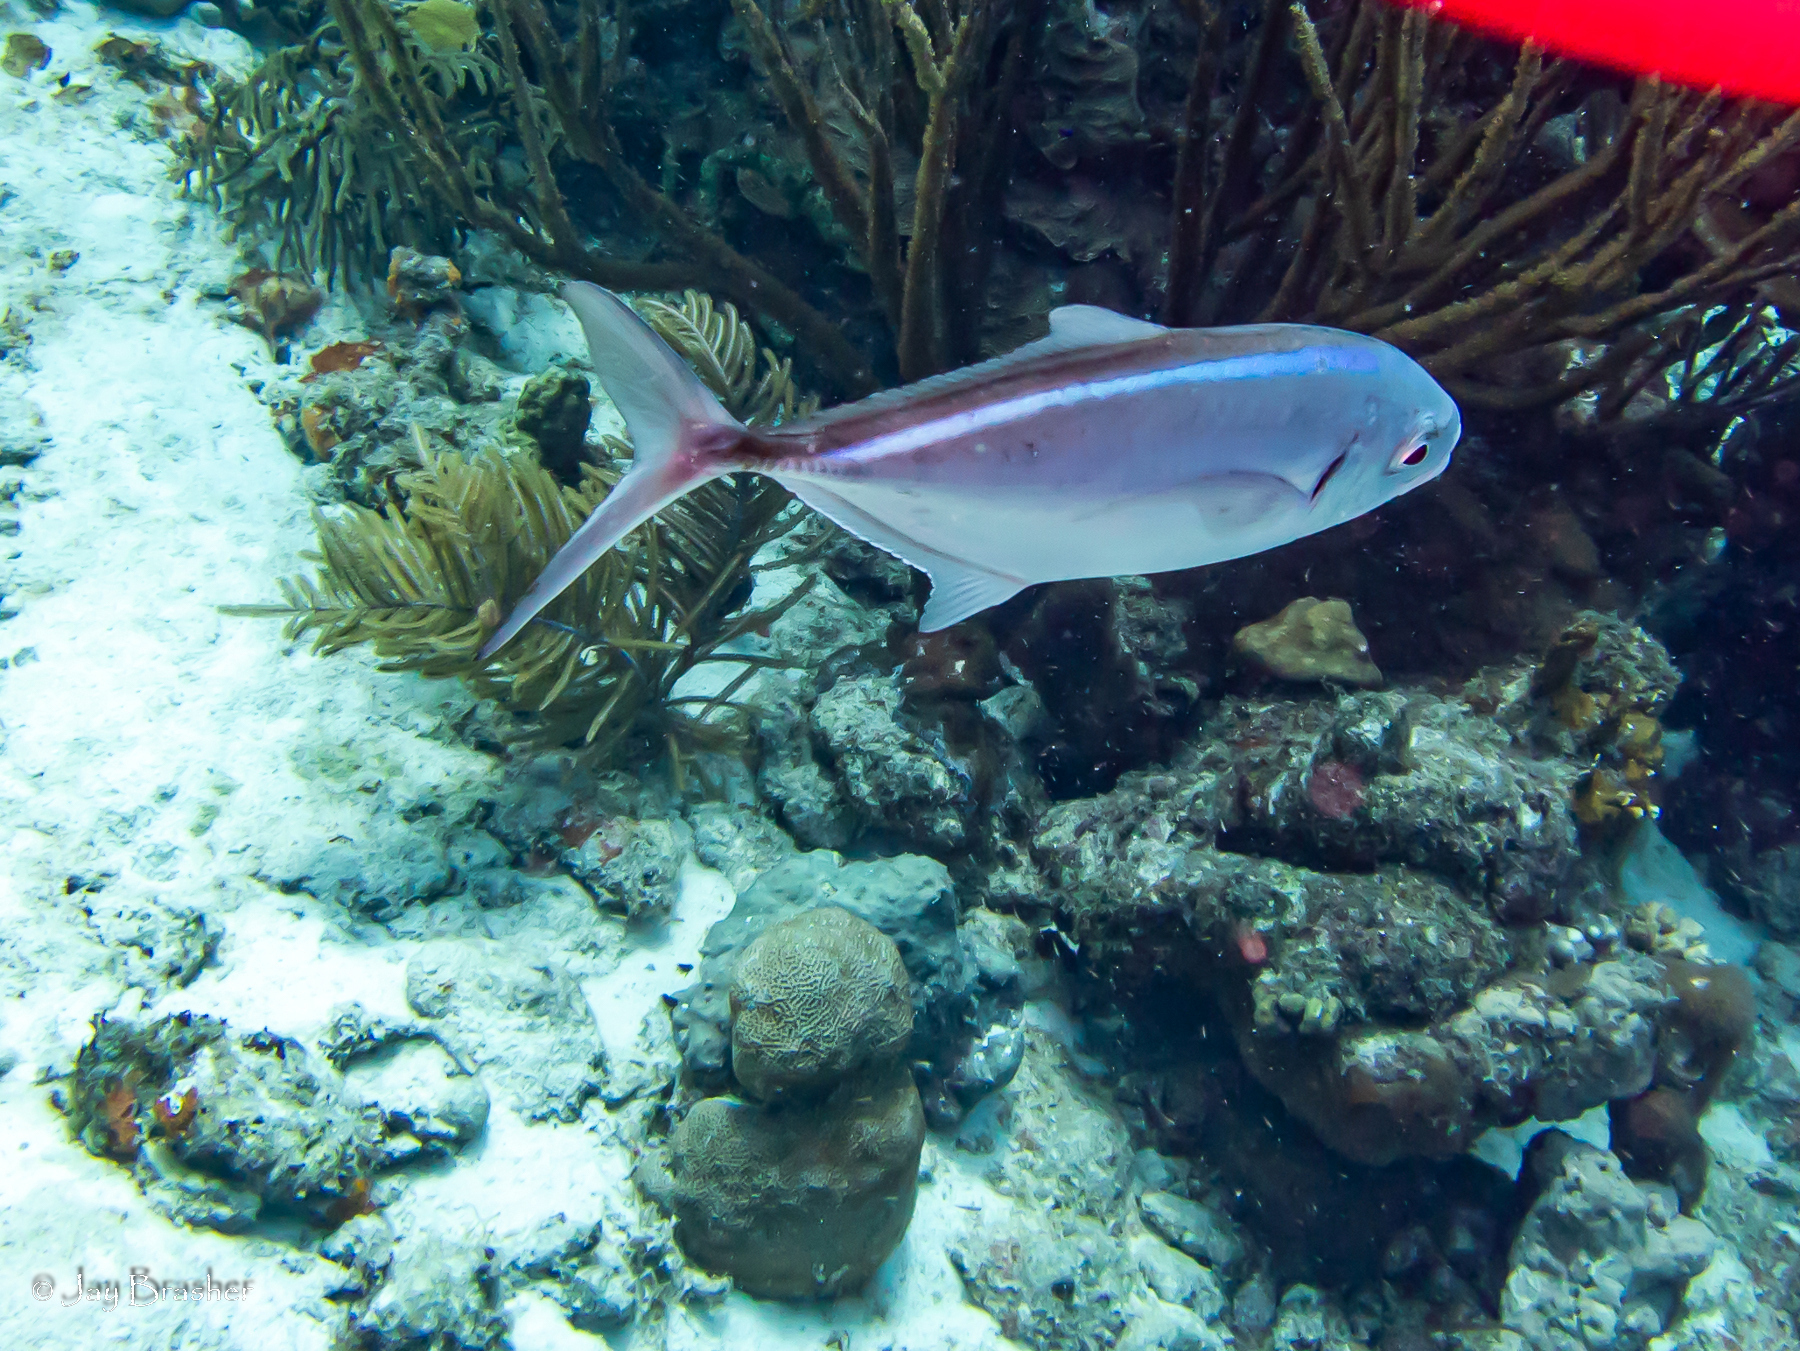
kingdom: Animalia
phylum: Chordata
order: Perciformes
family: Carangidae
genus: Caranx
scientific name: Caranx ruber
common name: Bar jack
